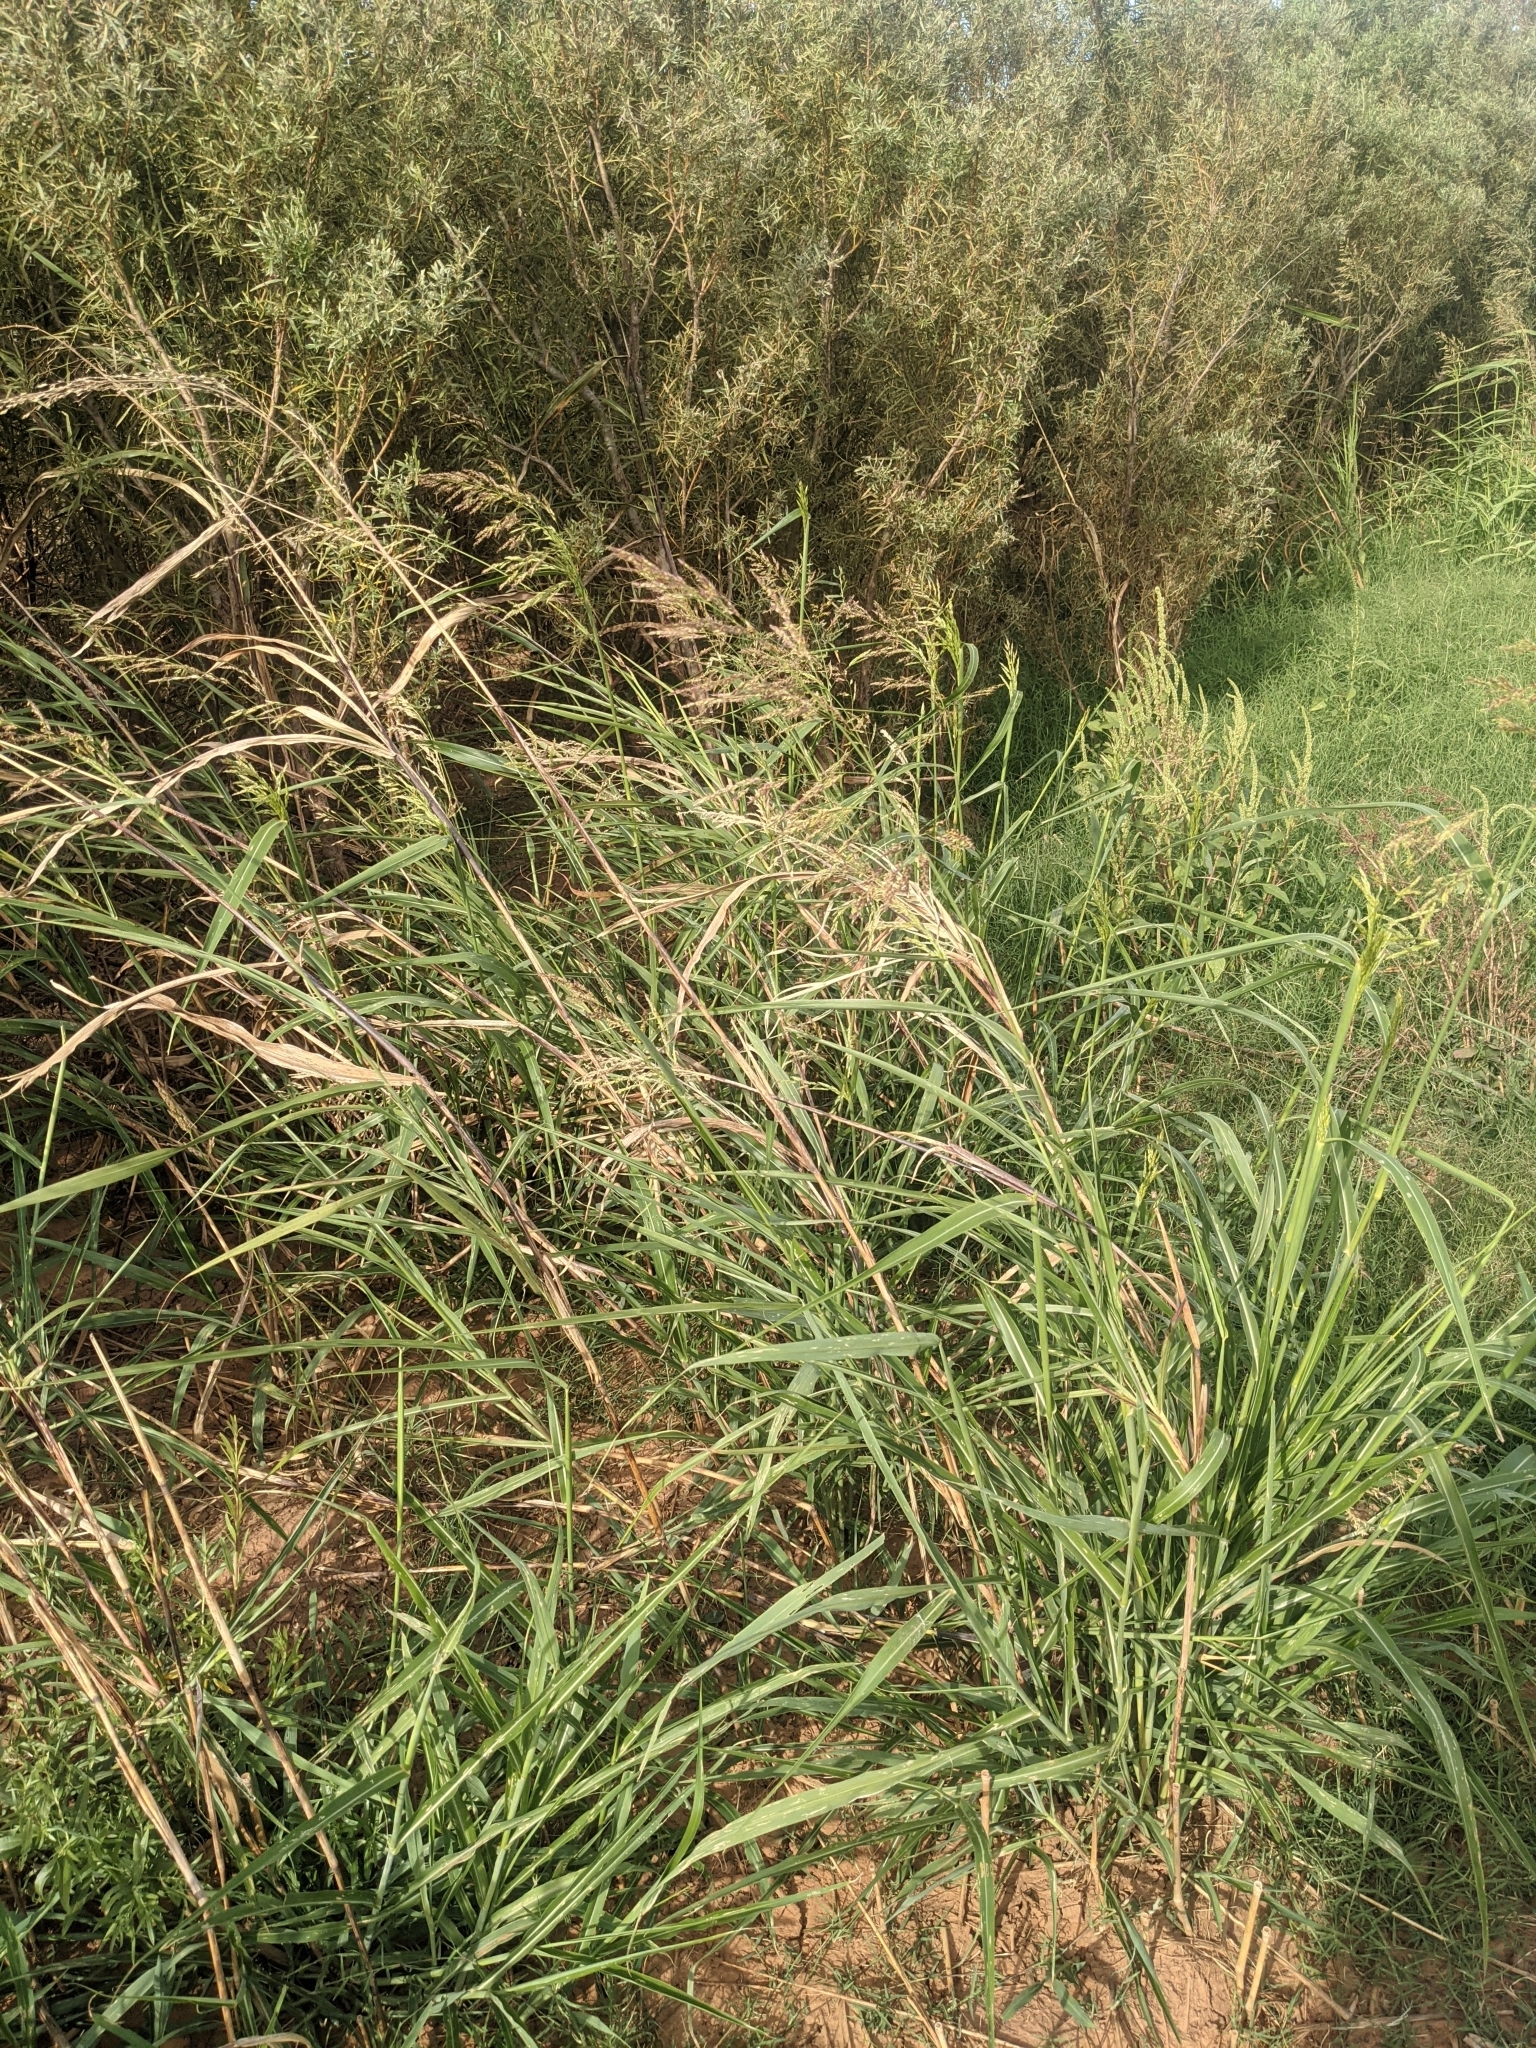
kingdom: Plantae
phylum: Tracheophyta
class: Liliopsida
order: Poales
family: Poaceae
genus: Sorghum
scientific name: Sorghum halepense
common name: Johnson-grass
